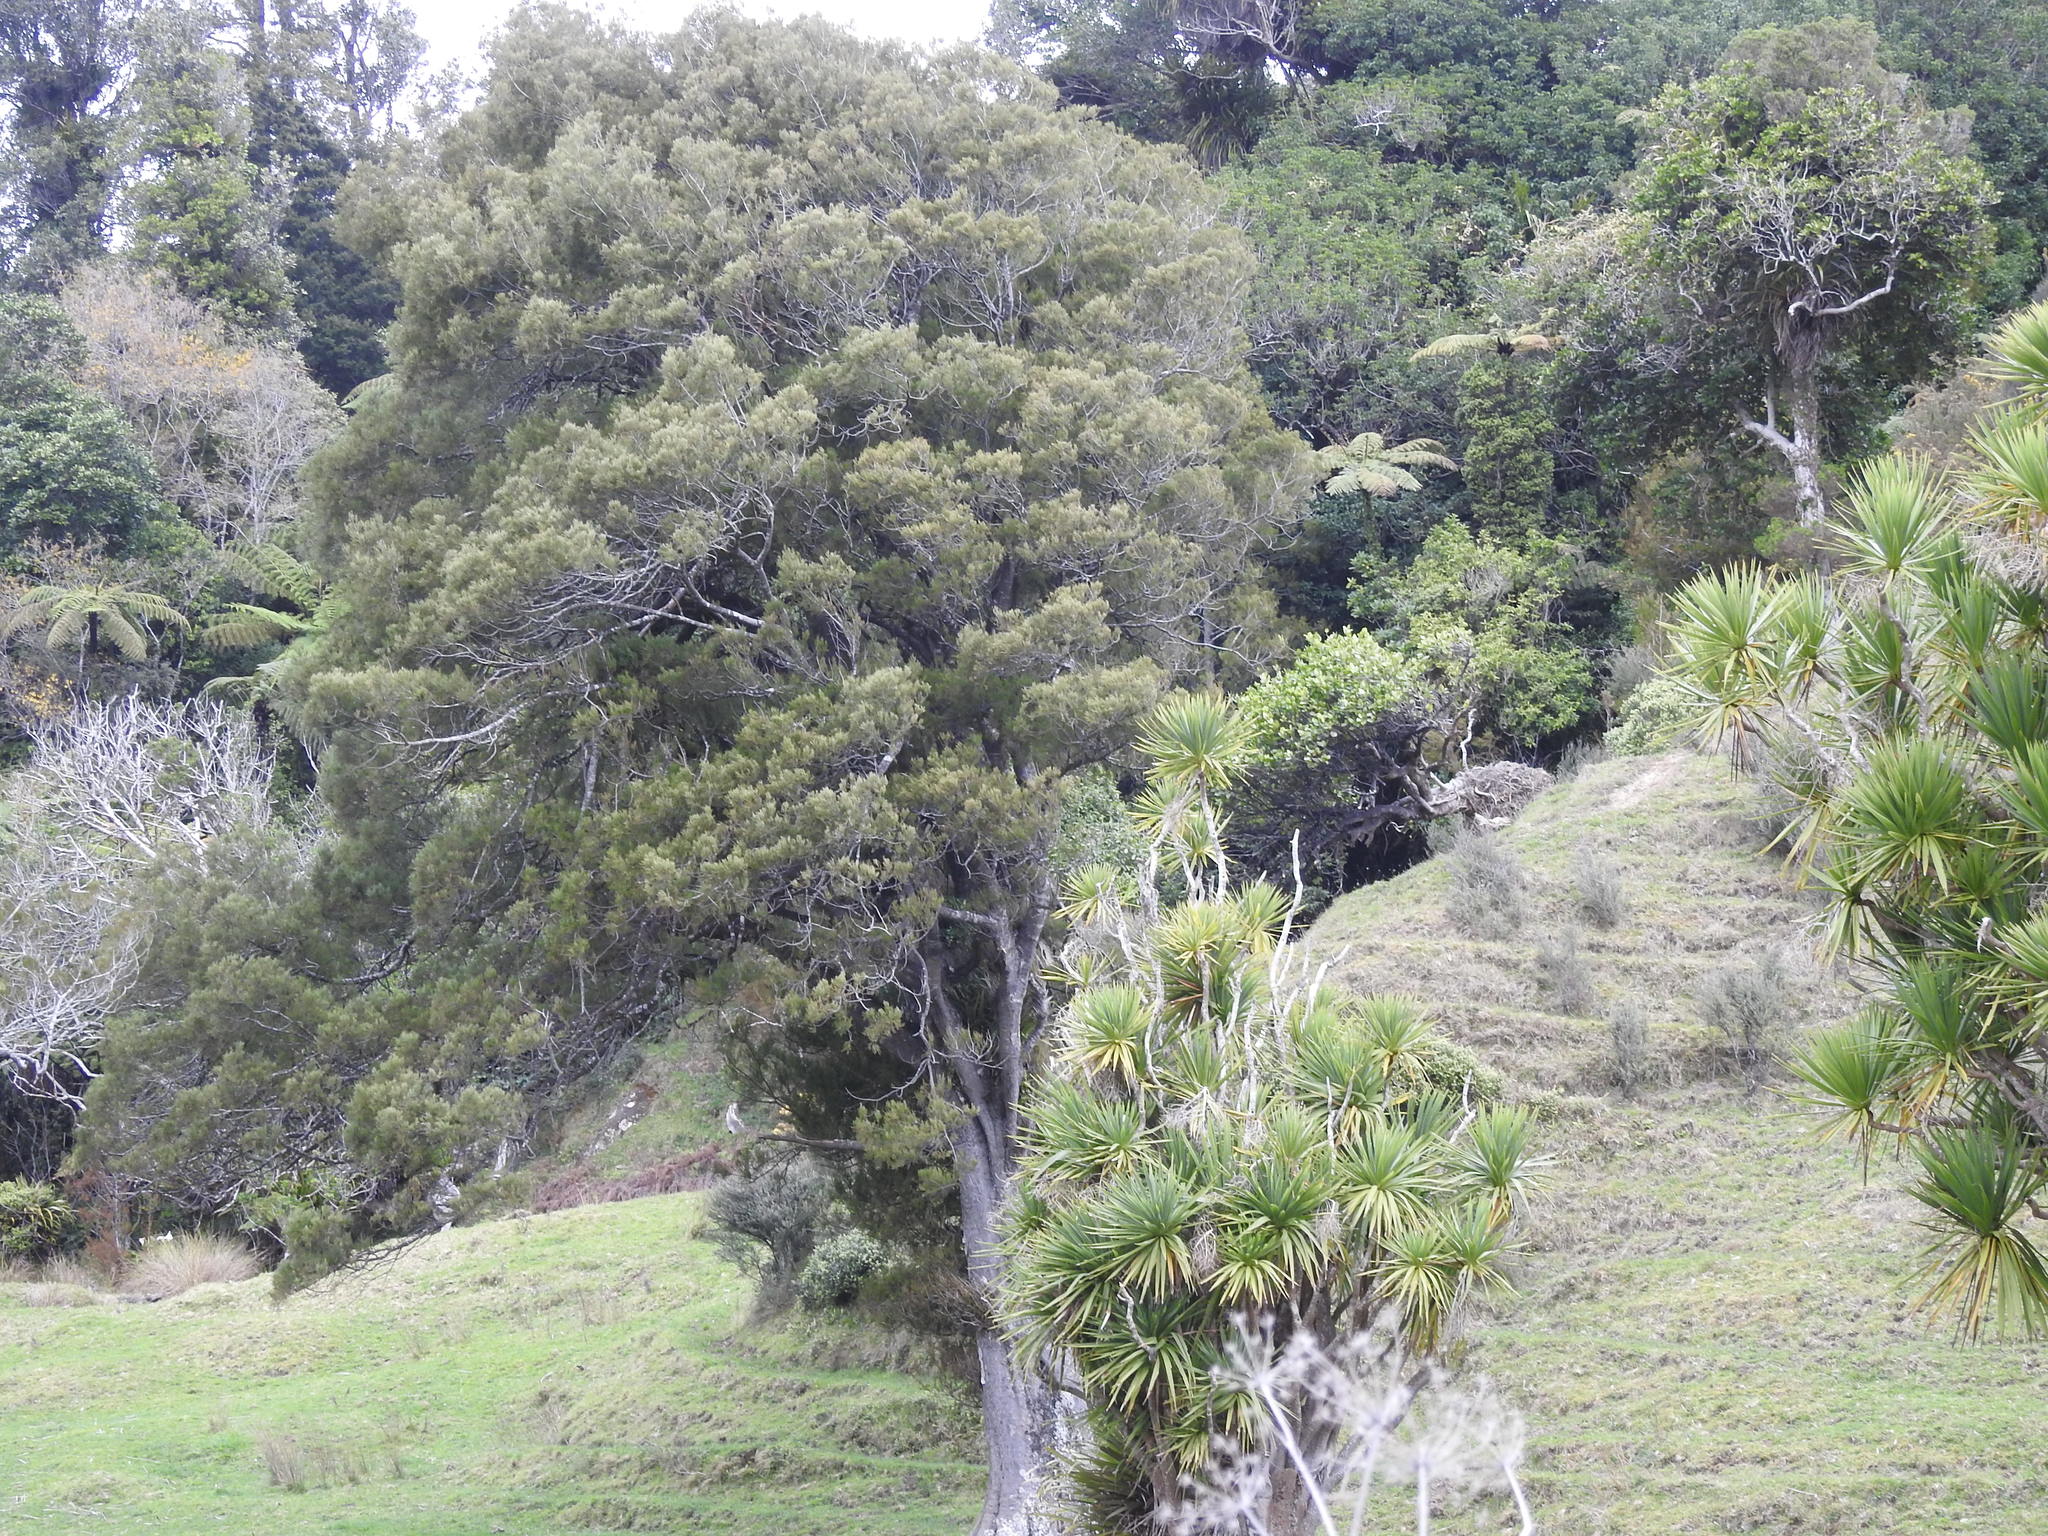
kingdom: Plantae
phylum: Tracheophyta
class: Pinopsida
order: Pinales
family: Podocarpaceae
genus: Dacrycarpus
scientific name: Dacrycarpus dacrydioides
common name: White pine
